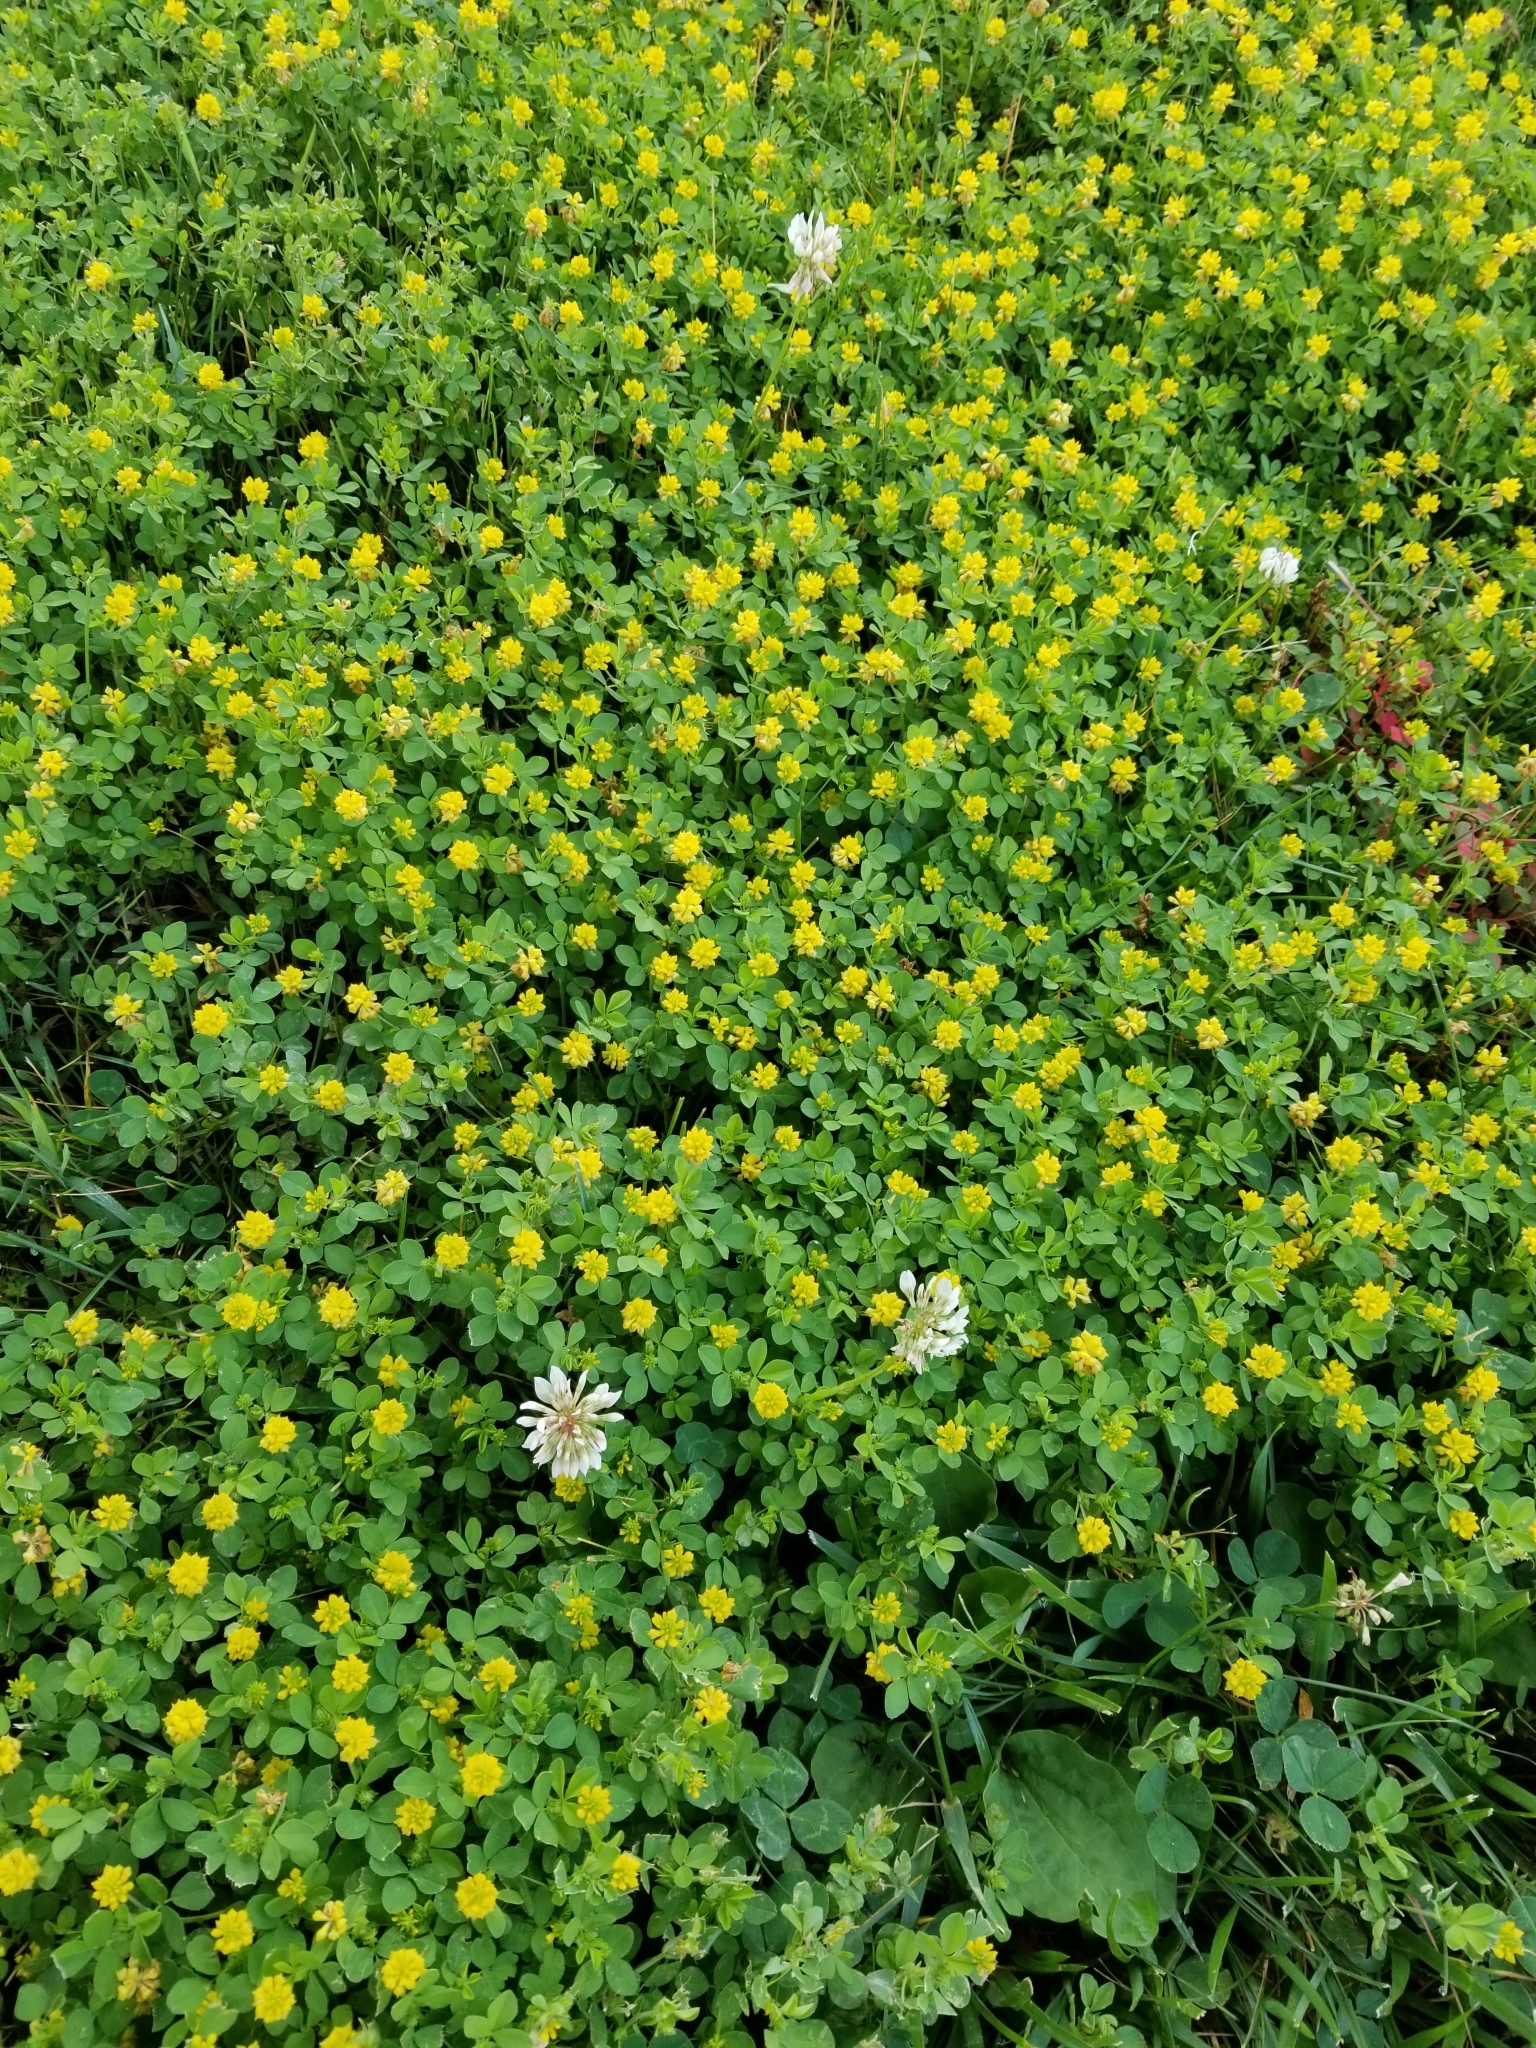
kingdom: Plantae
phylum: Tracheophyta
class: Magnoliopsida
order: Fabales
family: Fabaceae
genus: Trifolium
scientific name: Trifolium campestre
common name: Field clover
